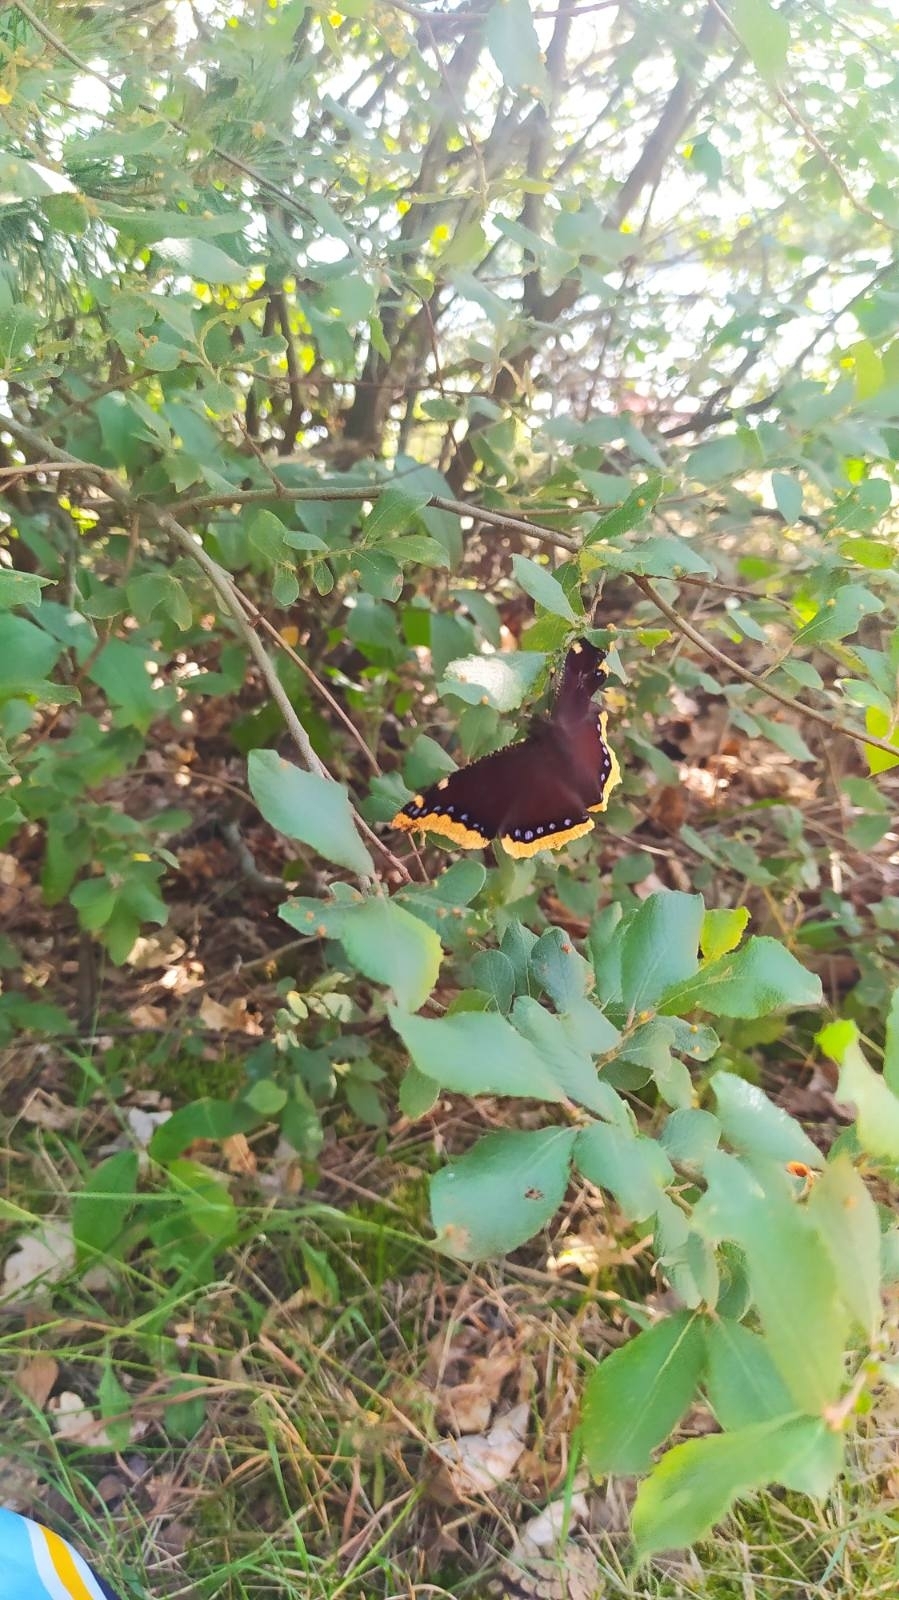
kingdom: Animalia
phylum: Arthropoda
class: Insecta
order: Lepidoptera
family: Nymphalidae
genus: Nymphalis
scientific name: Nymphalis antiopa
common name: Camberwell beauty
